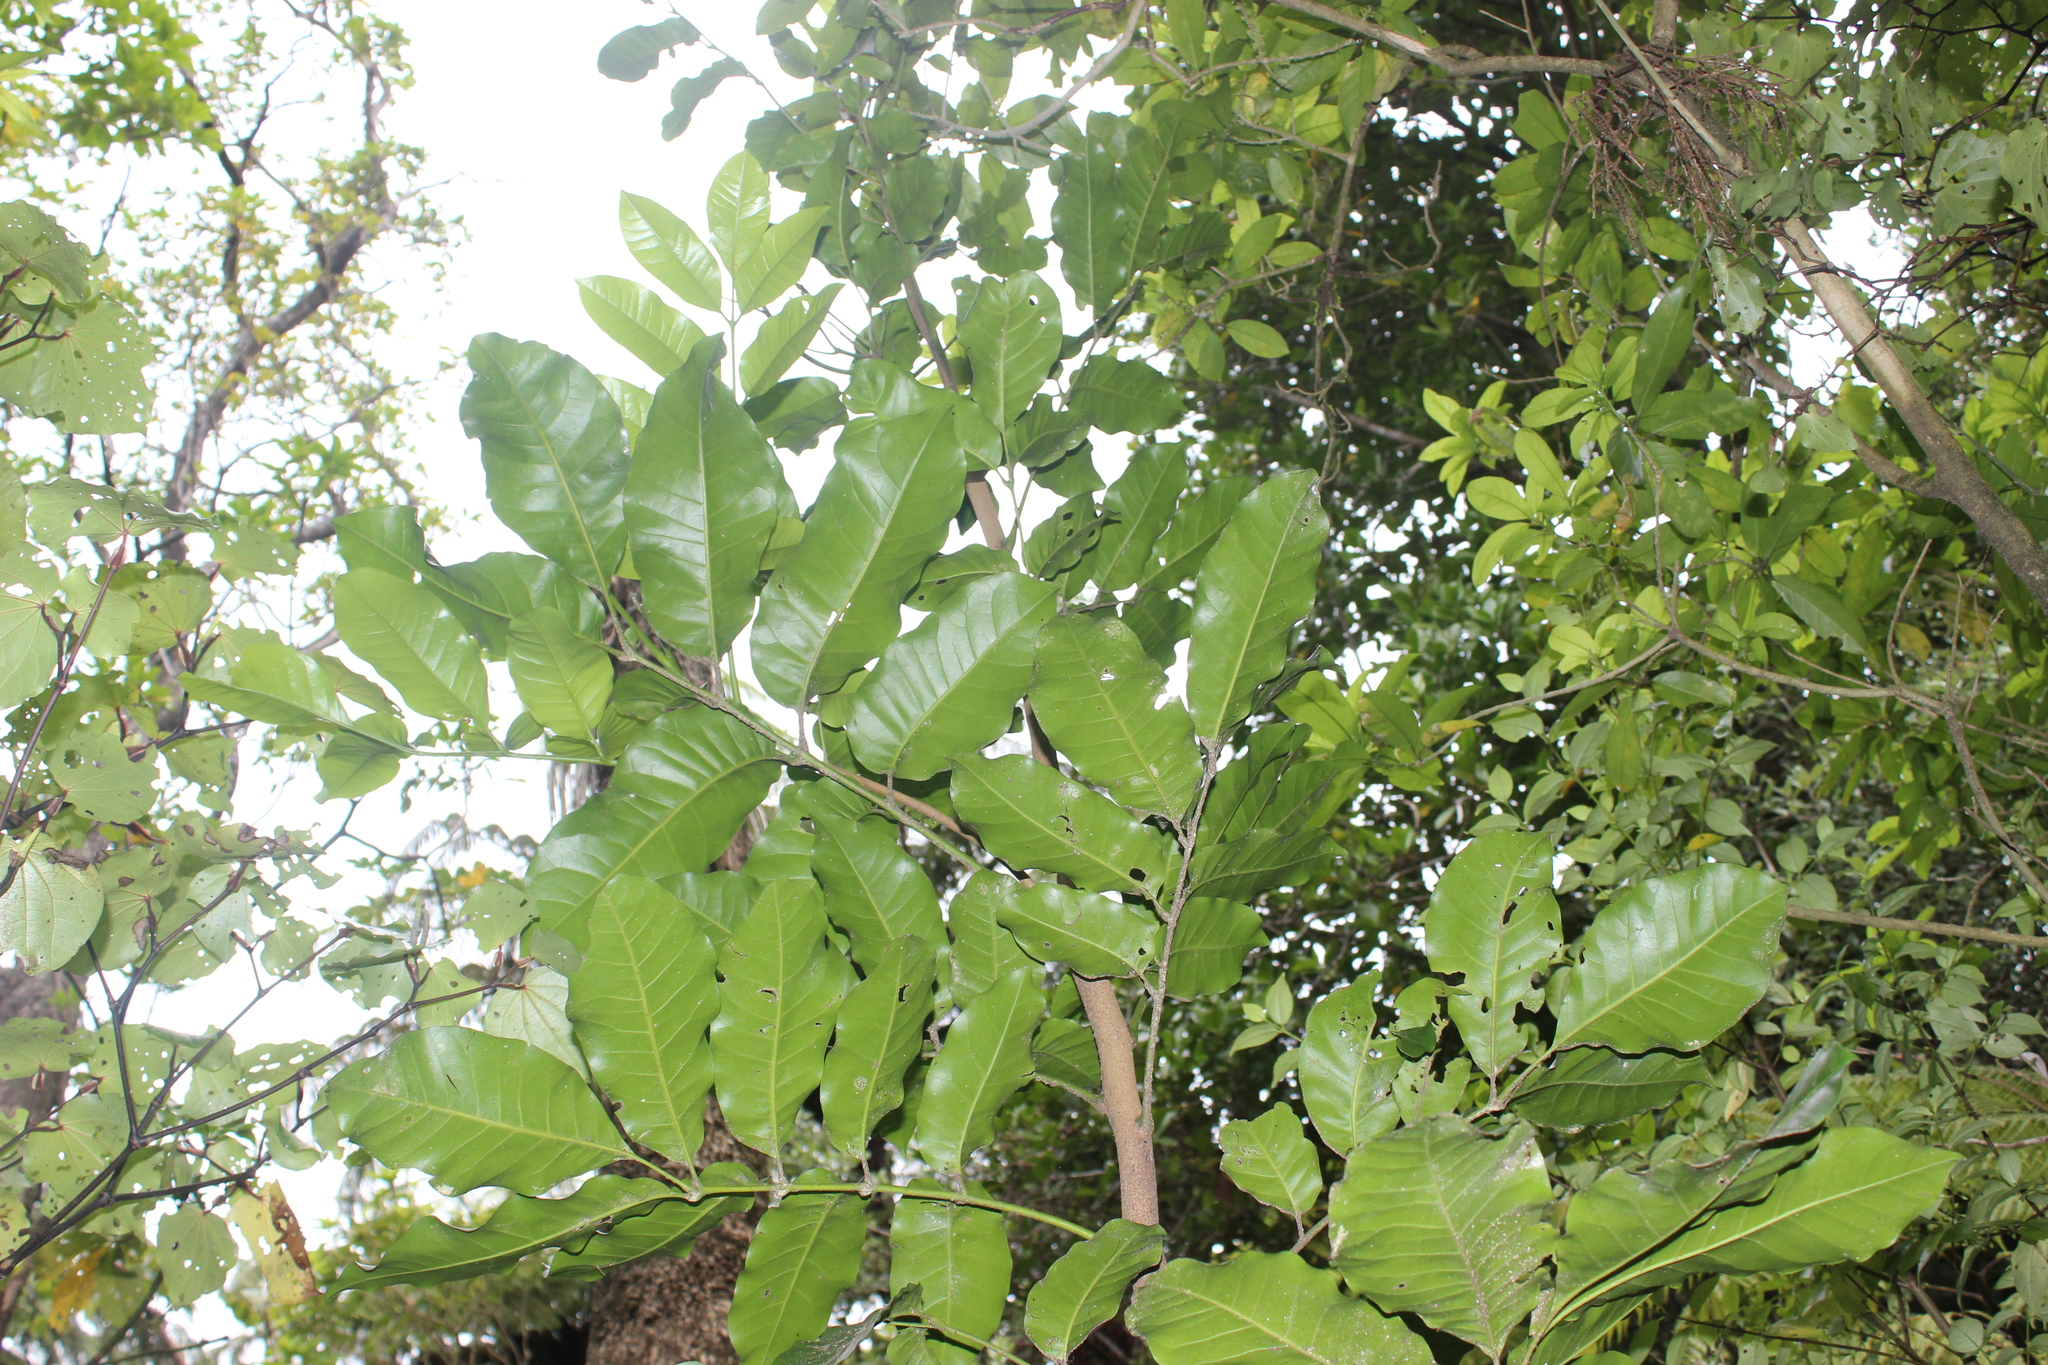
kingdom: Plantae
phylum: Tracheophyta
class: Magnoliopsida
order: Sapindales
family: Meliaceae
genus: Didymocheton
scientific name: Didymocheton spectabilis
